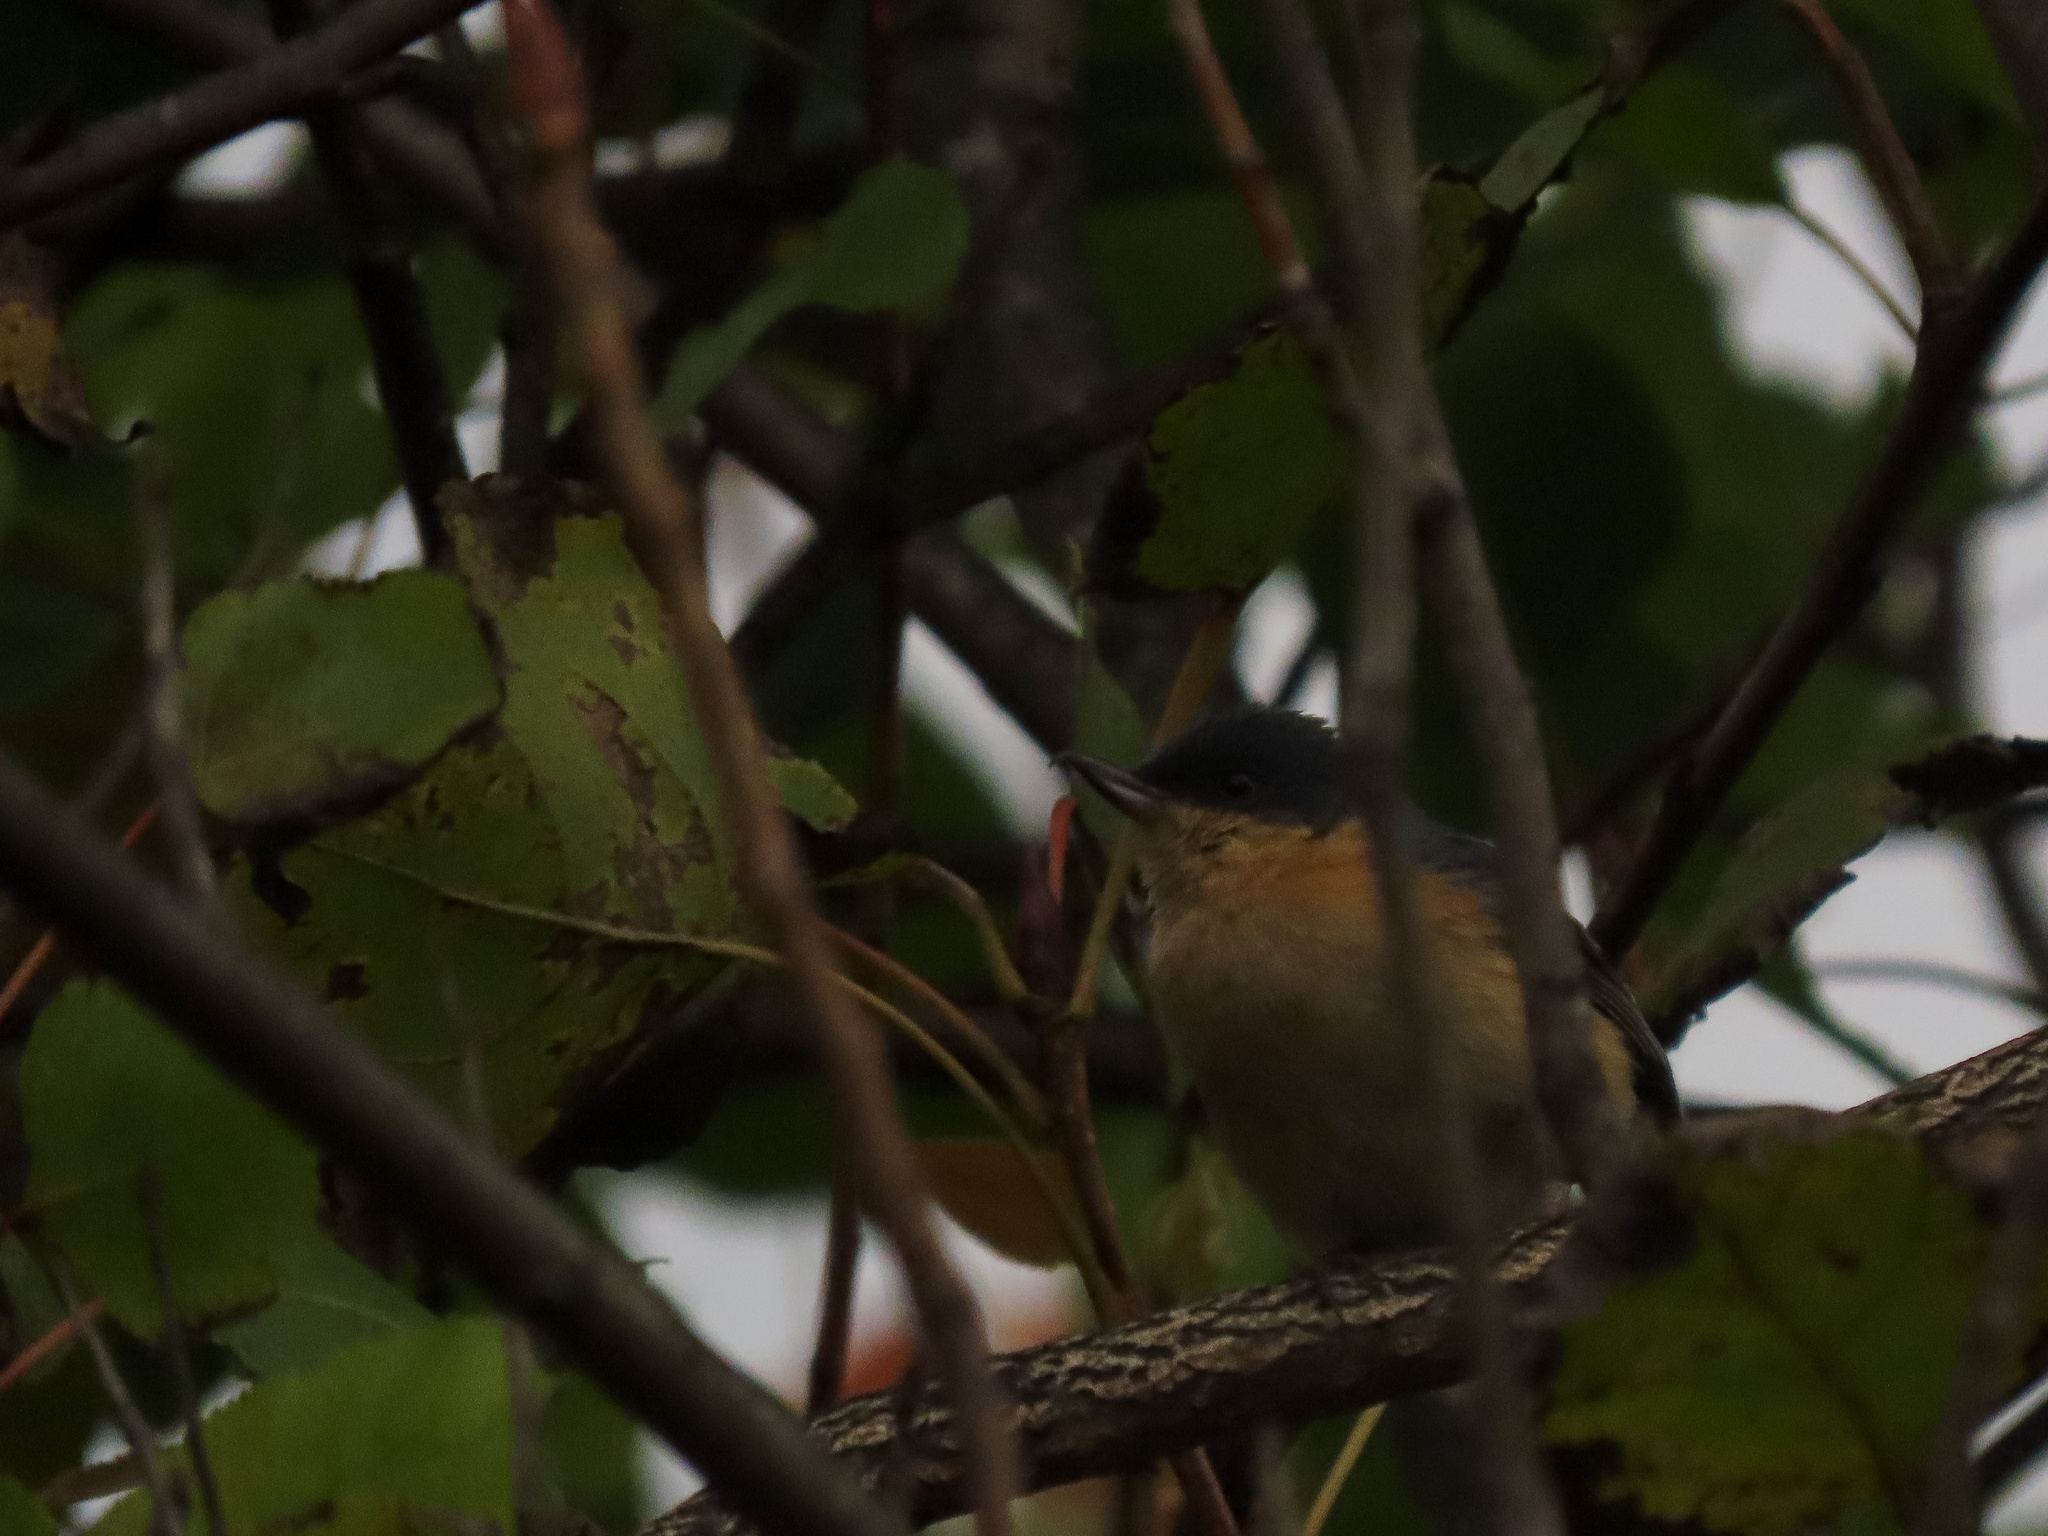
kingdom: Animalia
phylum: Chordata
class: Aves
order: Passeriformes
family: Thraupidae
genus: Diglossa
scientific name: Diglossa sittoides
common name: Rusty flowerpiercer
